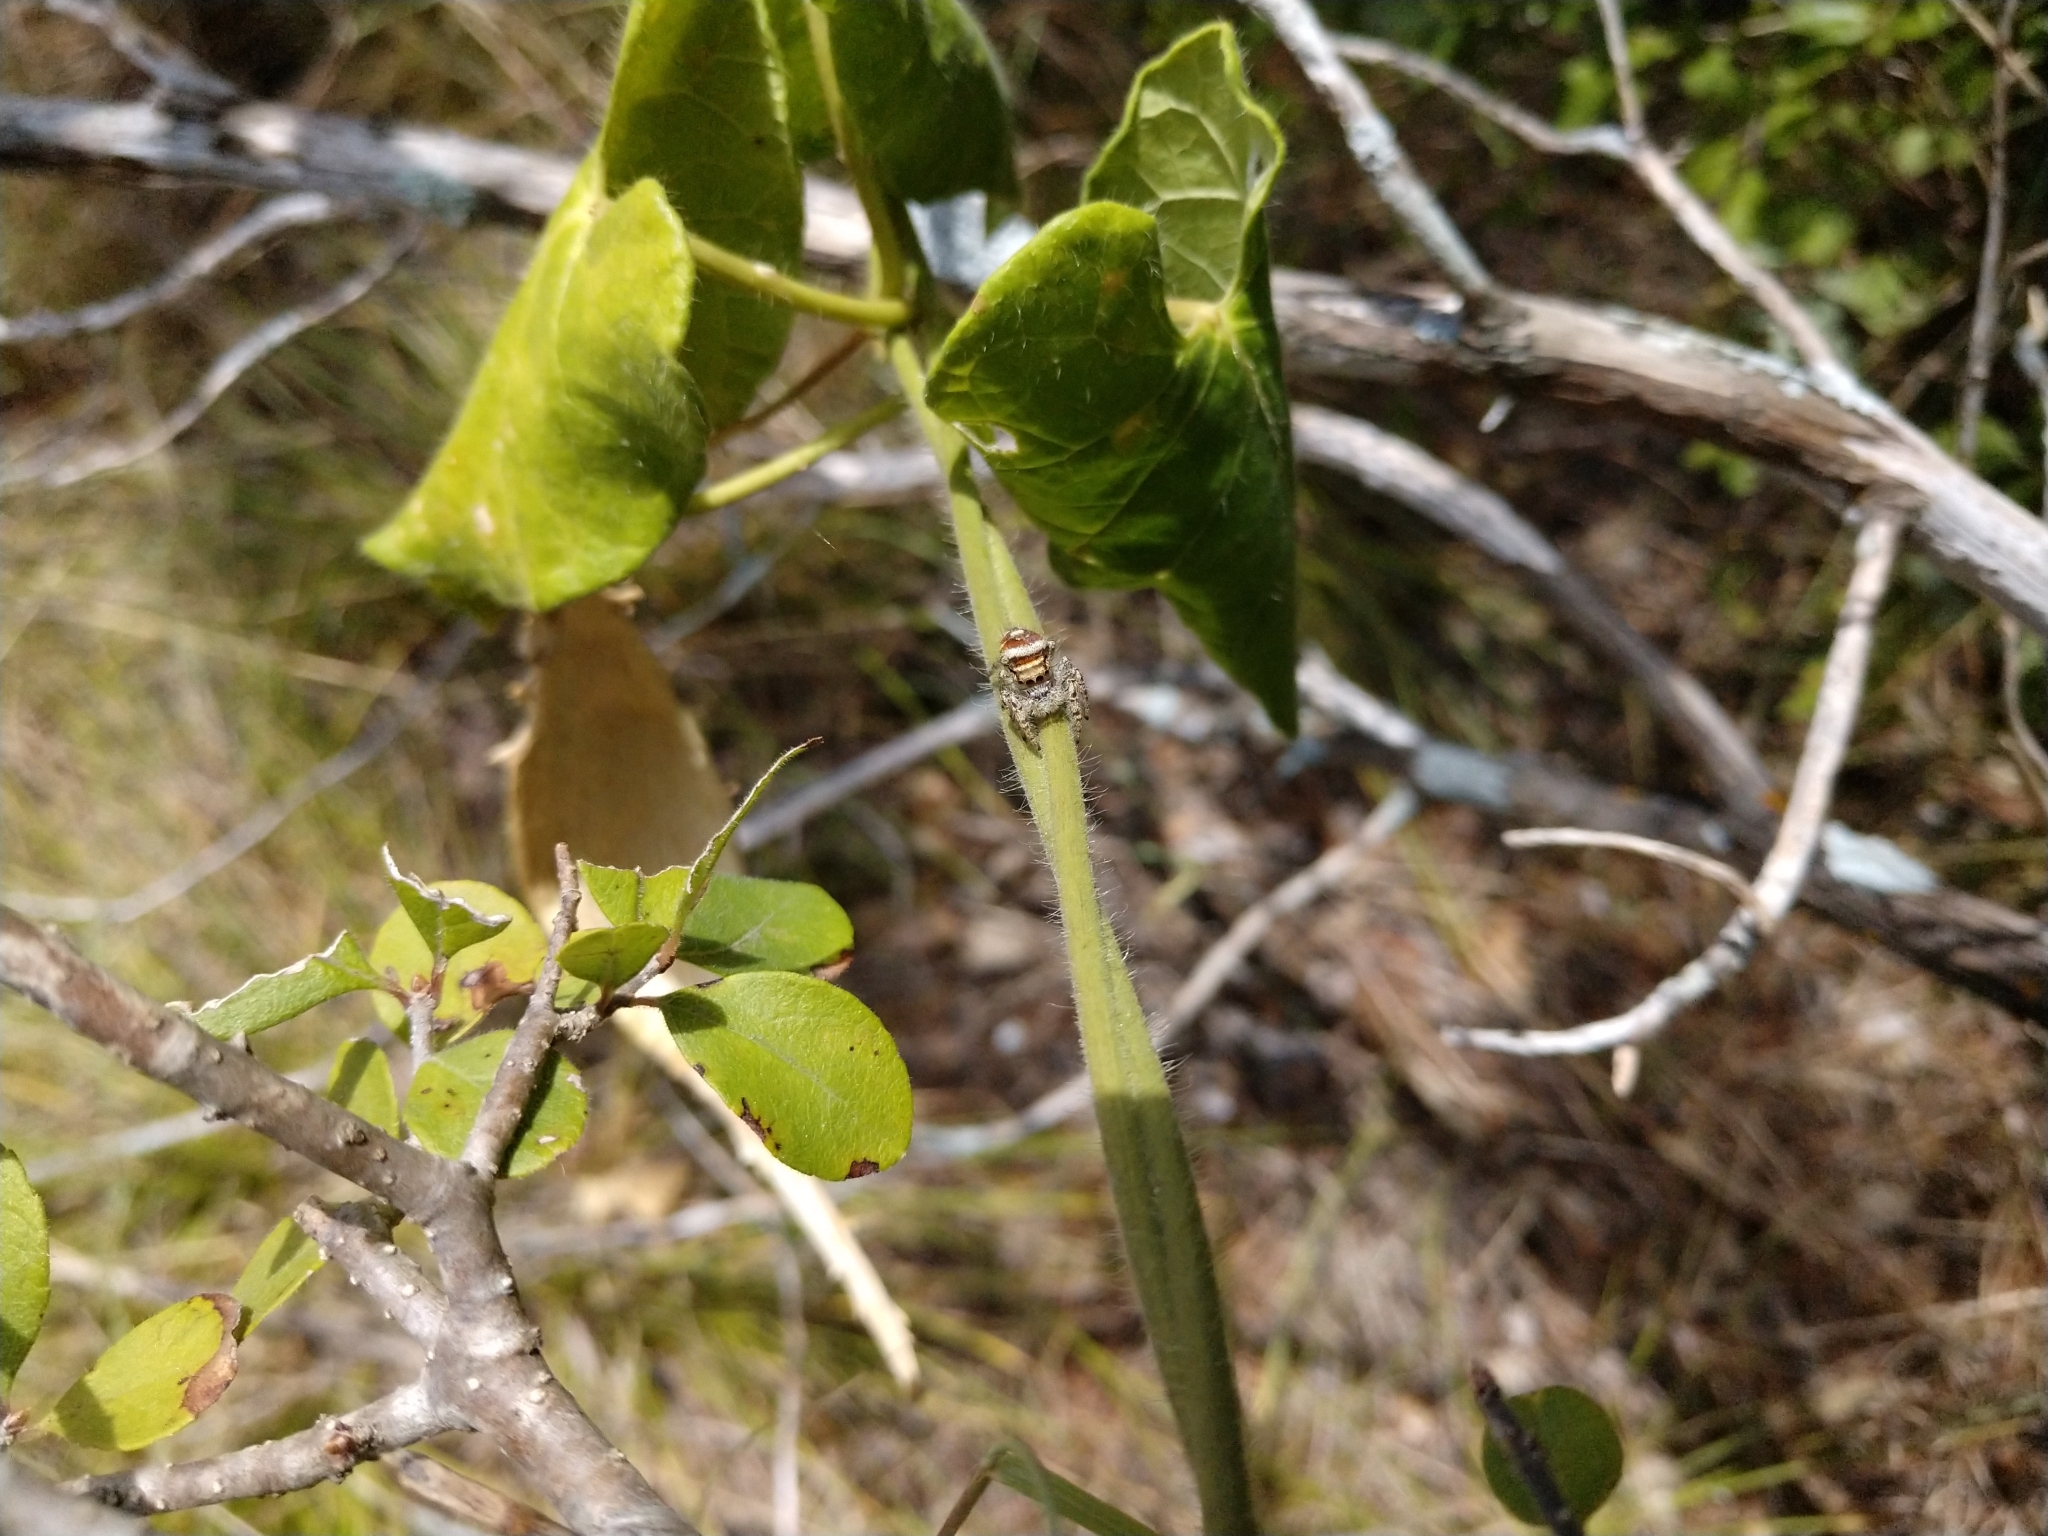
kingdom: Animalia
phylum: Arthropoda
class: Arachnida
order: Araneae
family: Salticidae
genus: Phidippus
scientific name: Phidippus arizonensis
